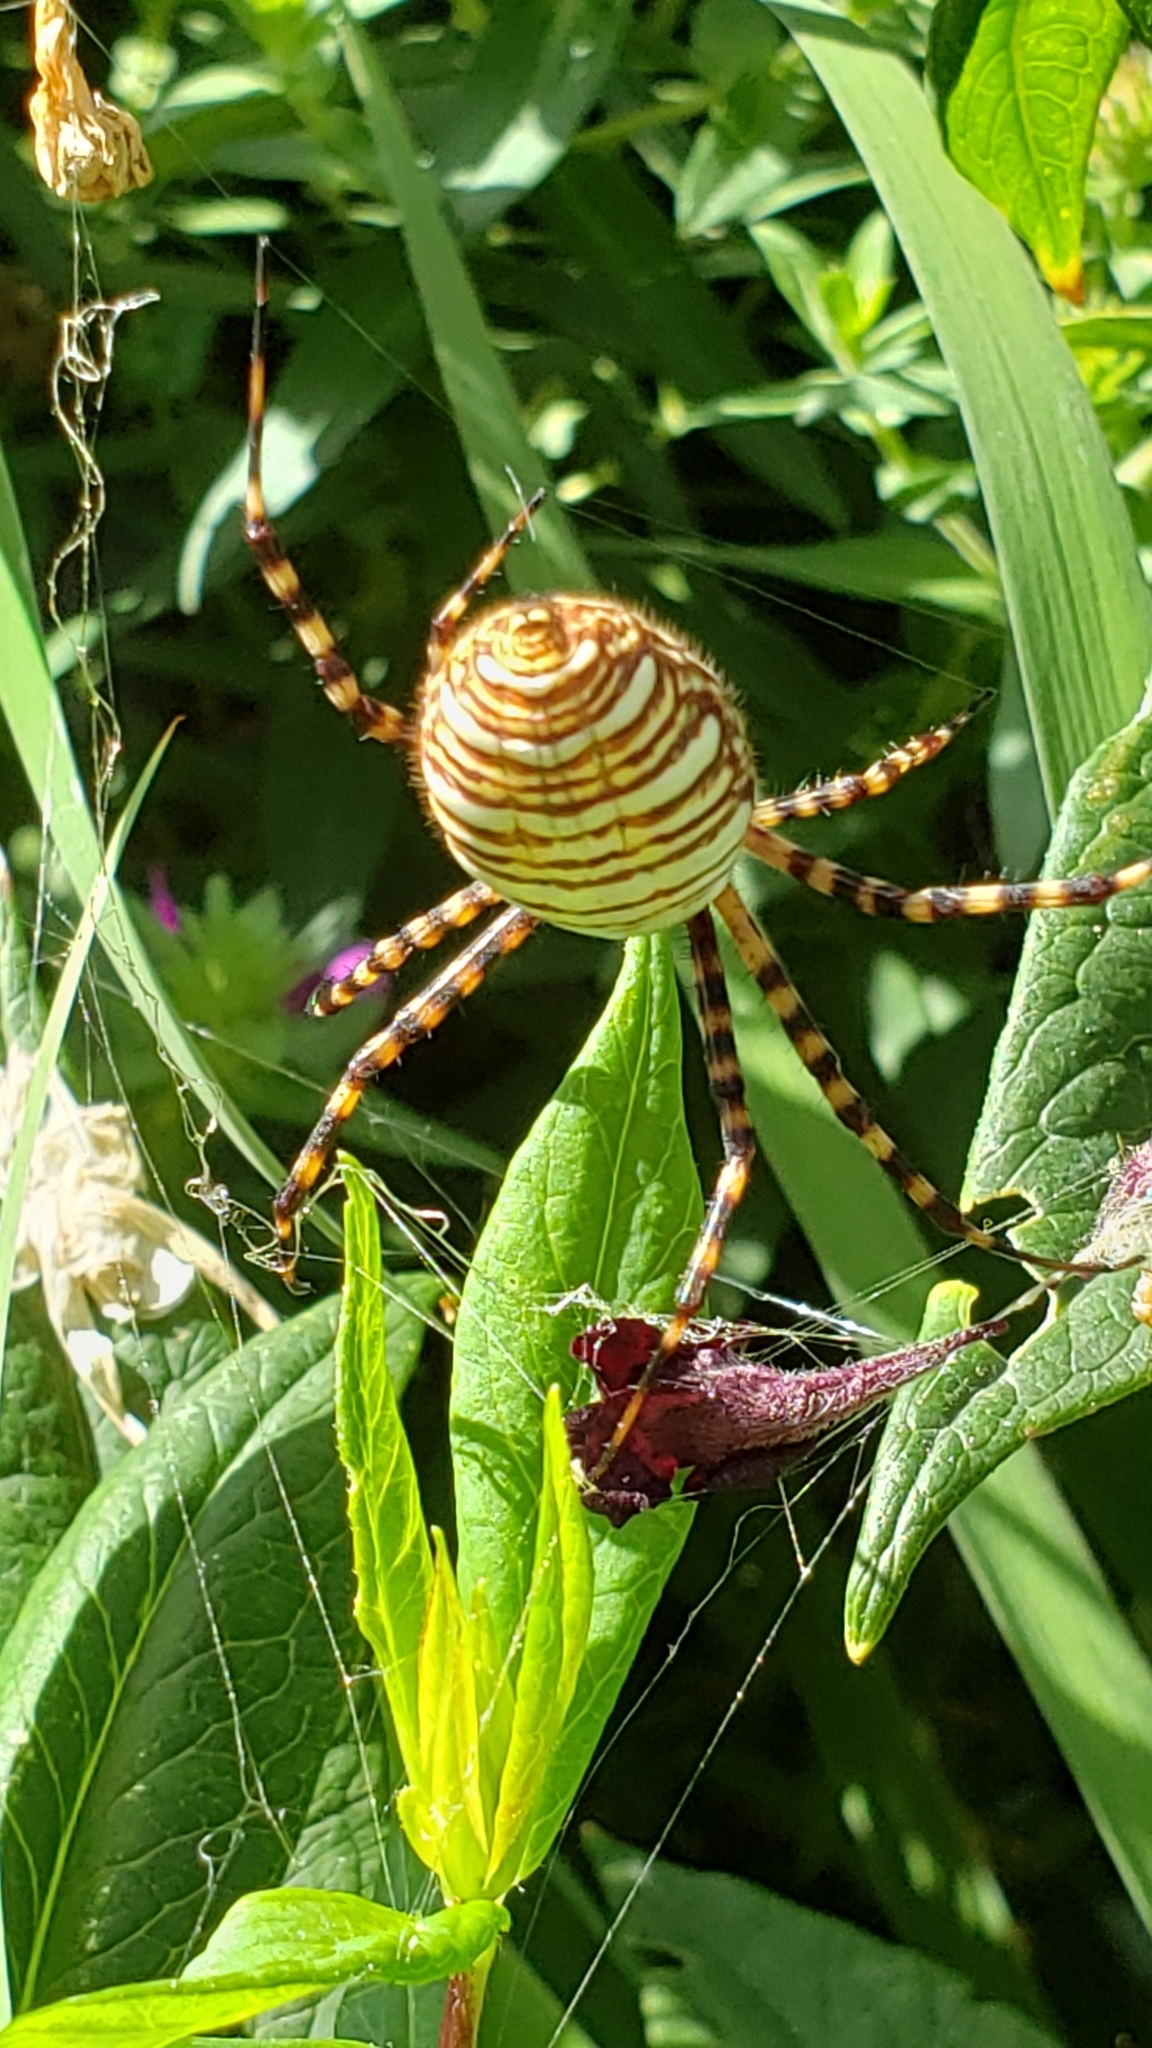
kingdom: Animalia
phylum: Arthropoda
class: Arachnida
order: Araneae
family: Araneidae
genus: Argiope
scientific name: Argiope trifasciata
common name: Banded garden spider
